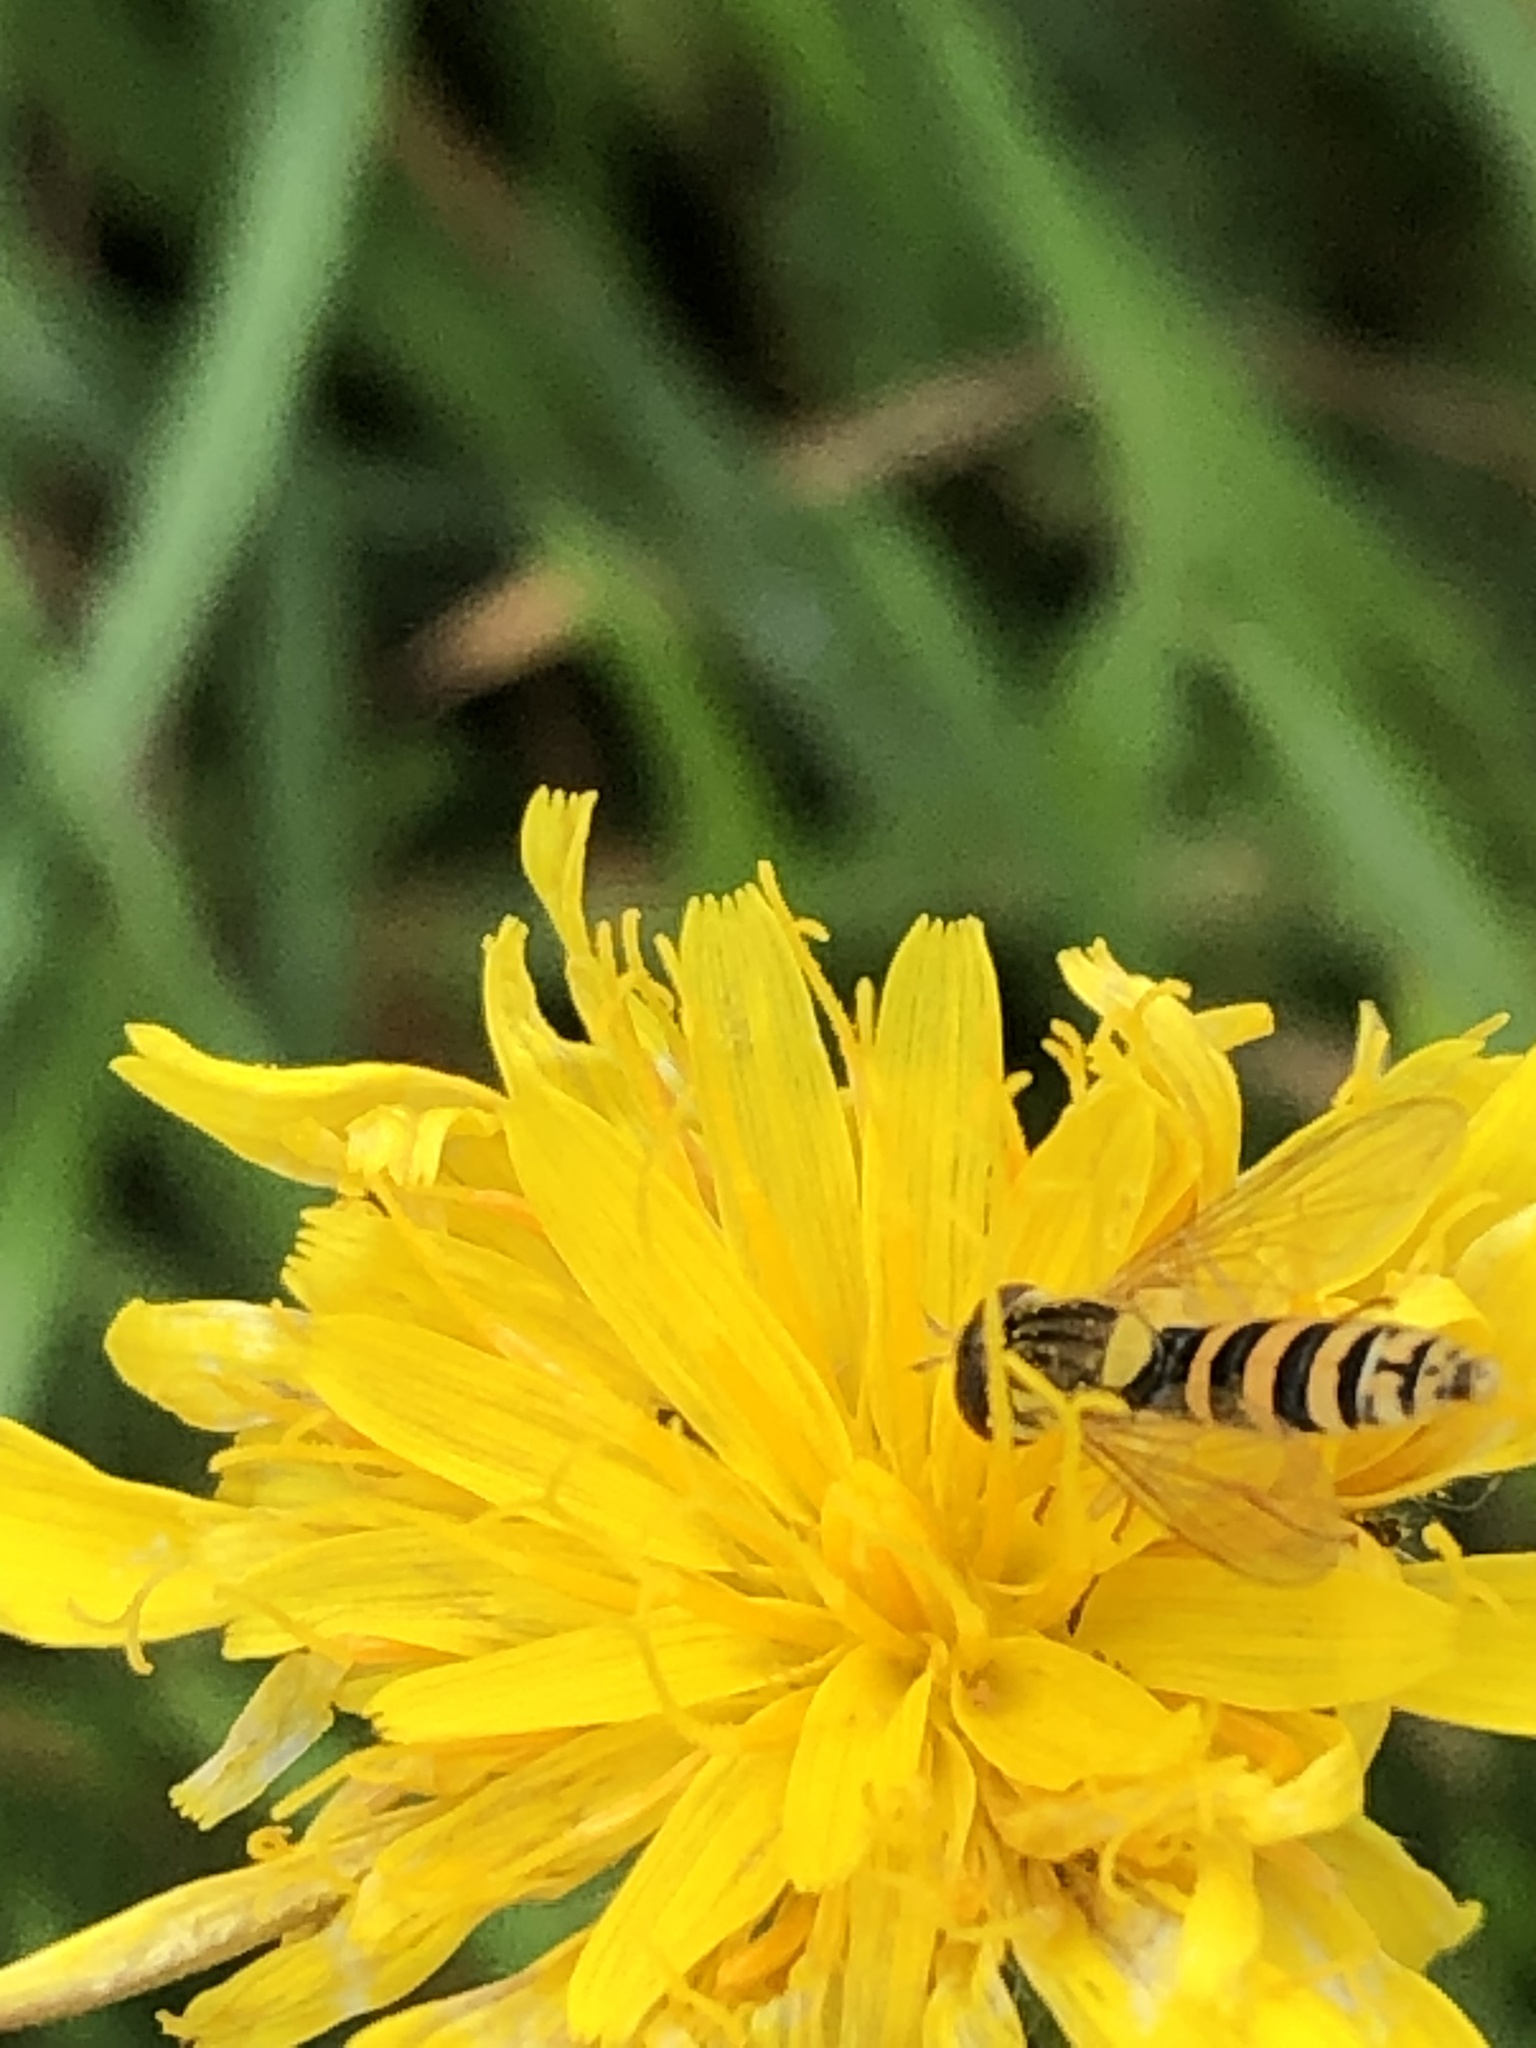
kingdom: Animalia
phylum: Arthropoda
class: Insecta
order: Diptera
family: Syrphidae
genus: Sphaerophoria
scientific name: Sphaerophoria
